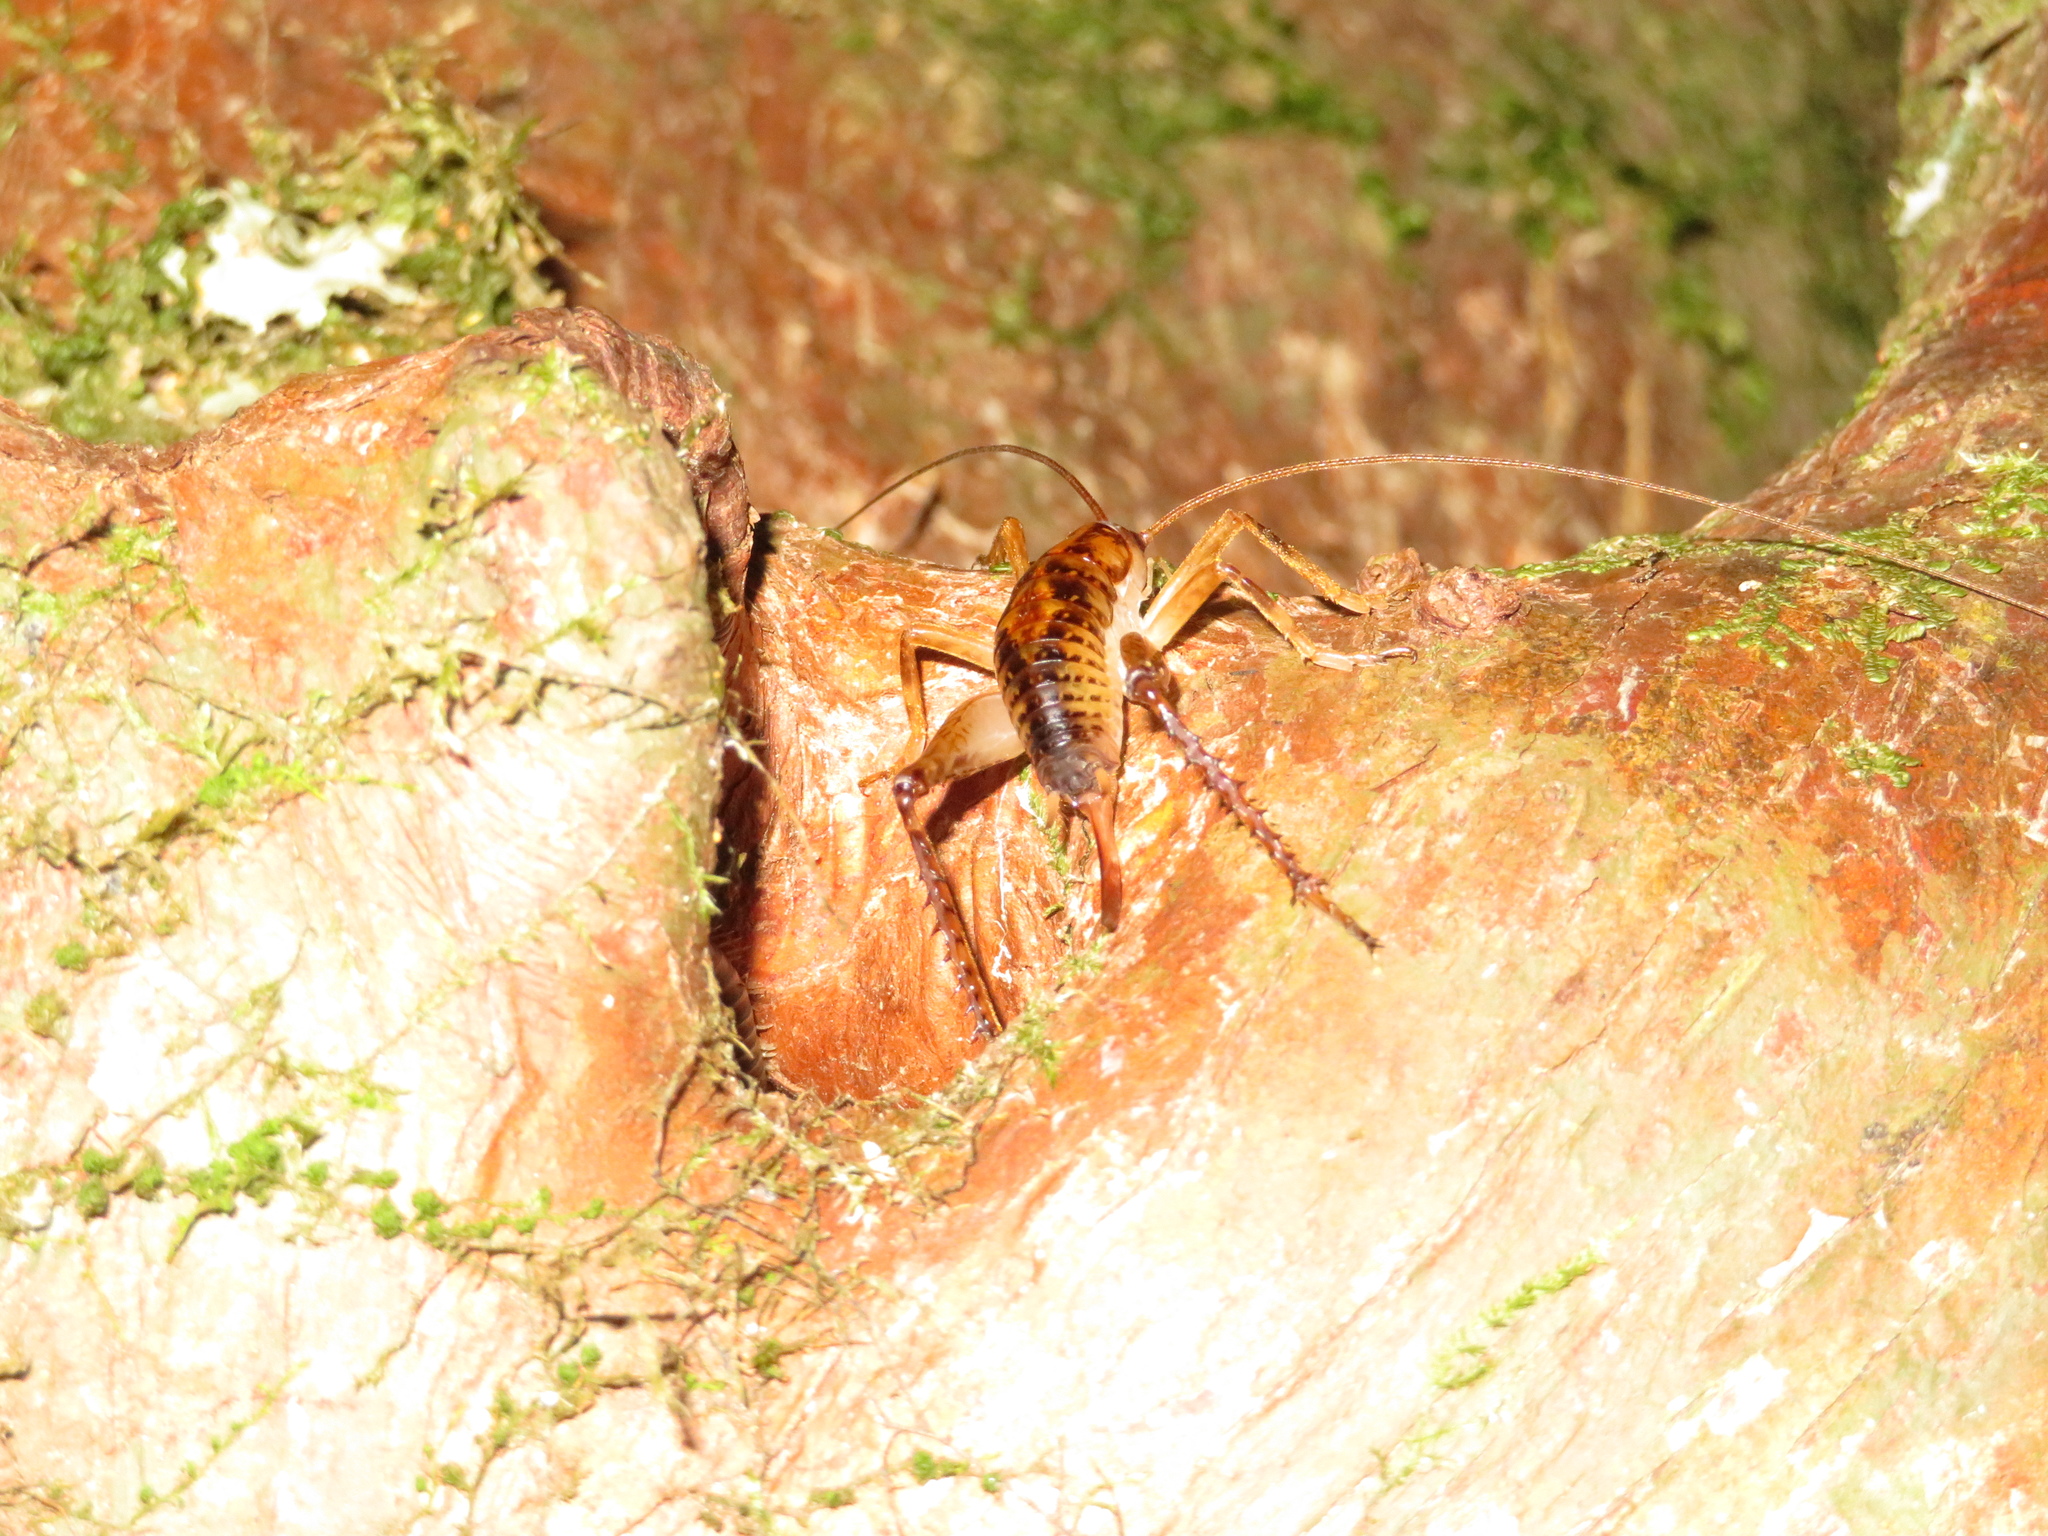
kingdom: Animalia
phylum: Arthropoda
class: Insecta
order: Orthoptera
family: Rhaphidophoridae
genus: Talitropsis
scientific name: Talitropsis sedilloti
